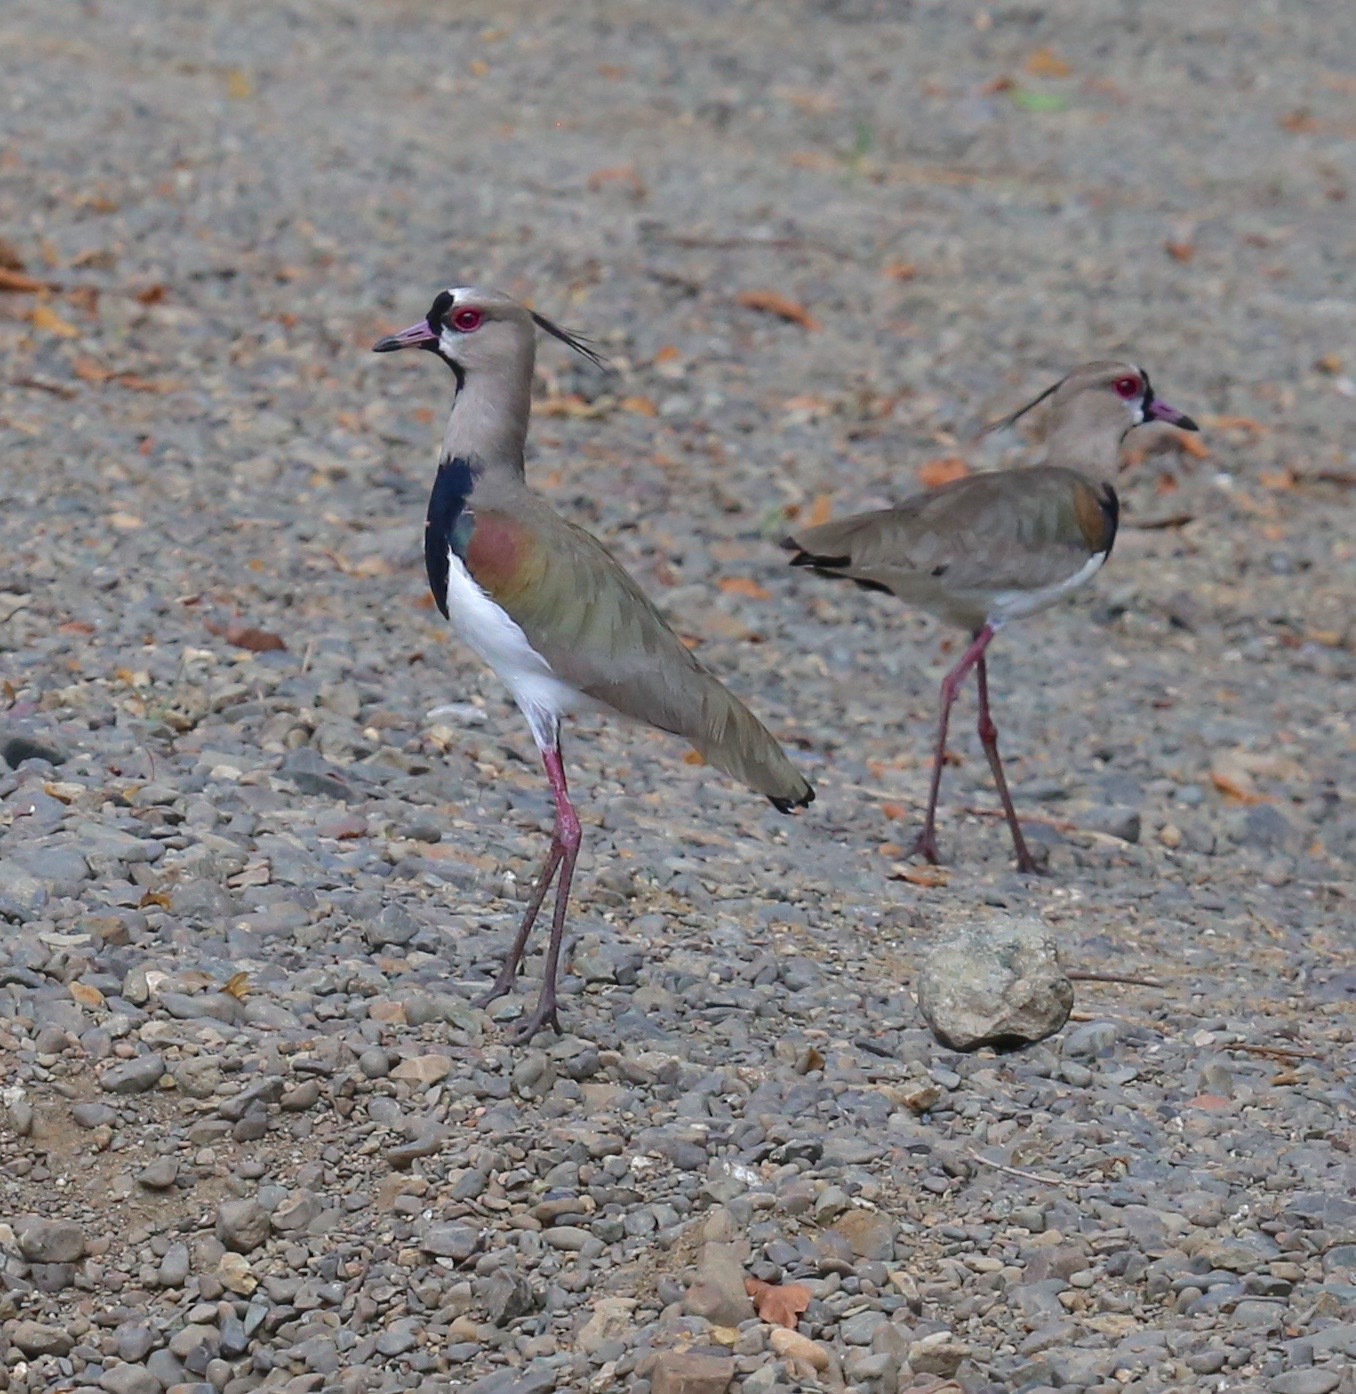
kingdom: Animalia
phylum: Chordata
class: Aves
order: Charadriiformes
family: Charadriidae
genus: Vanellus
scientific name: Vanellus chilensis
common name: Southern lapwing
